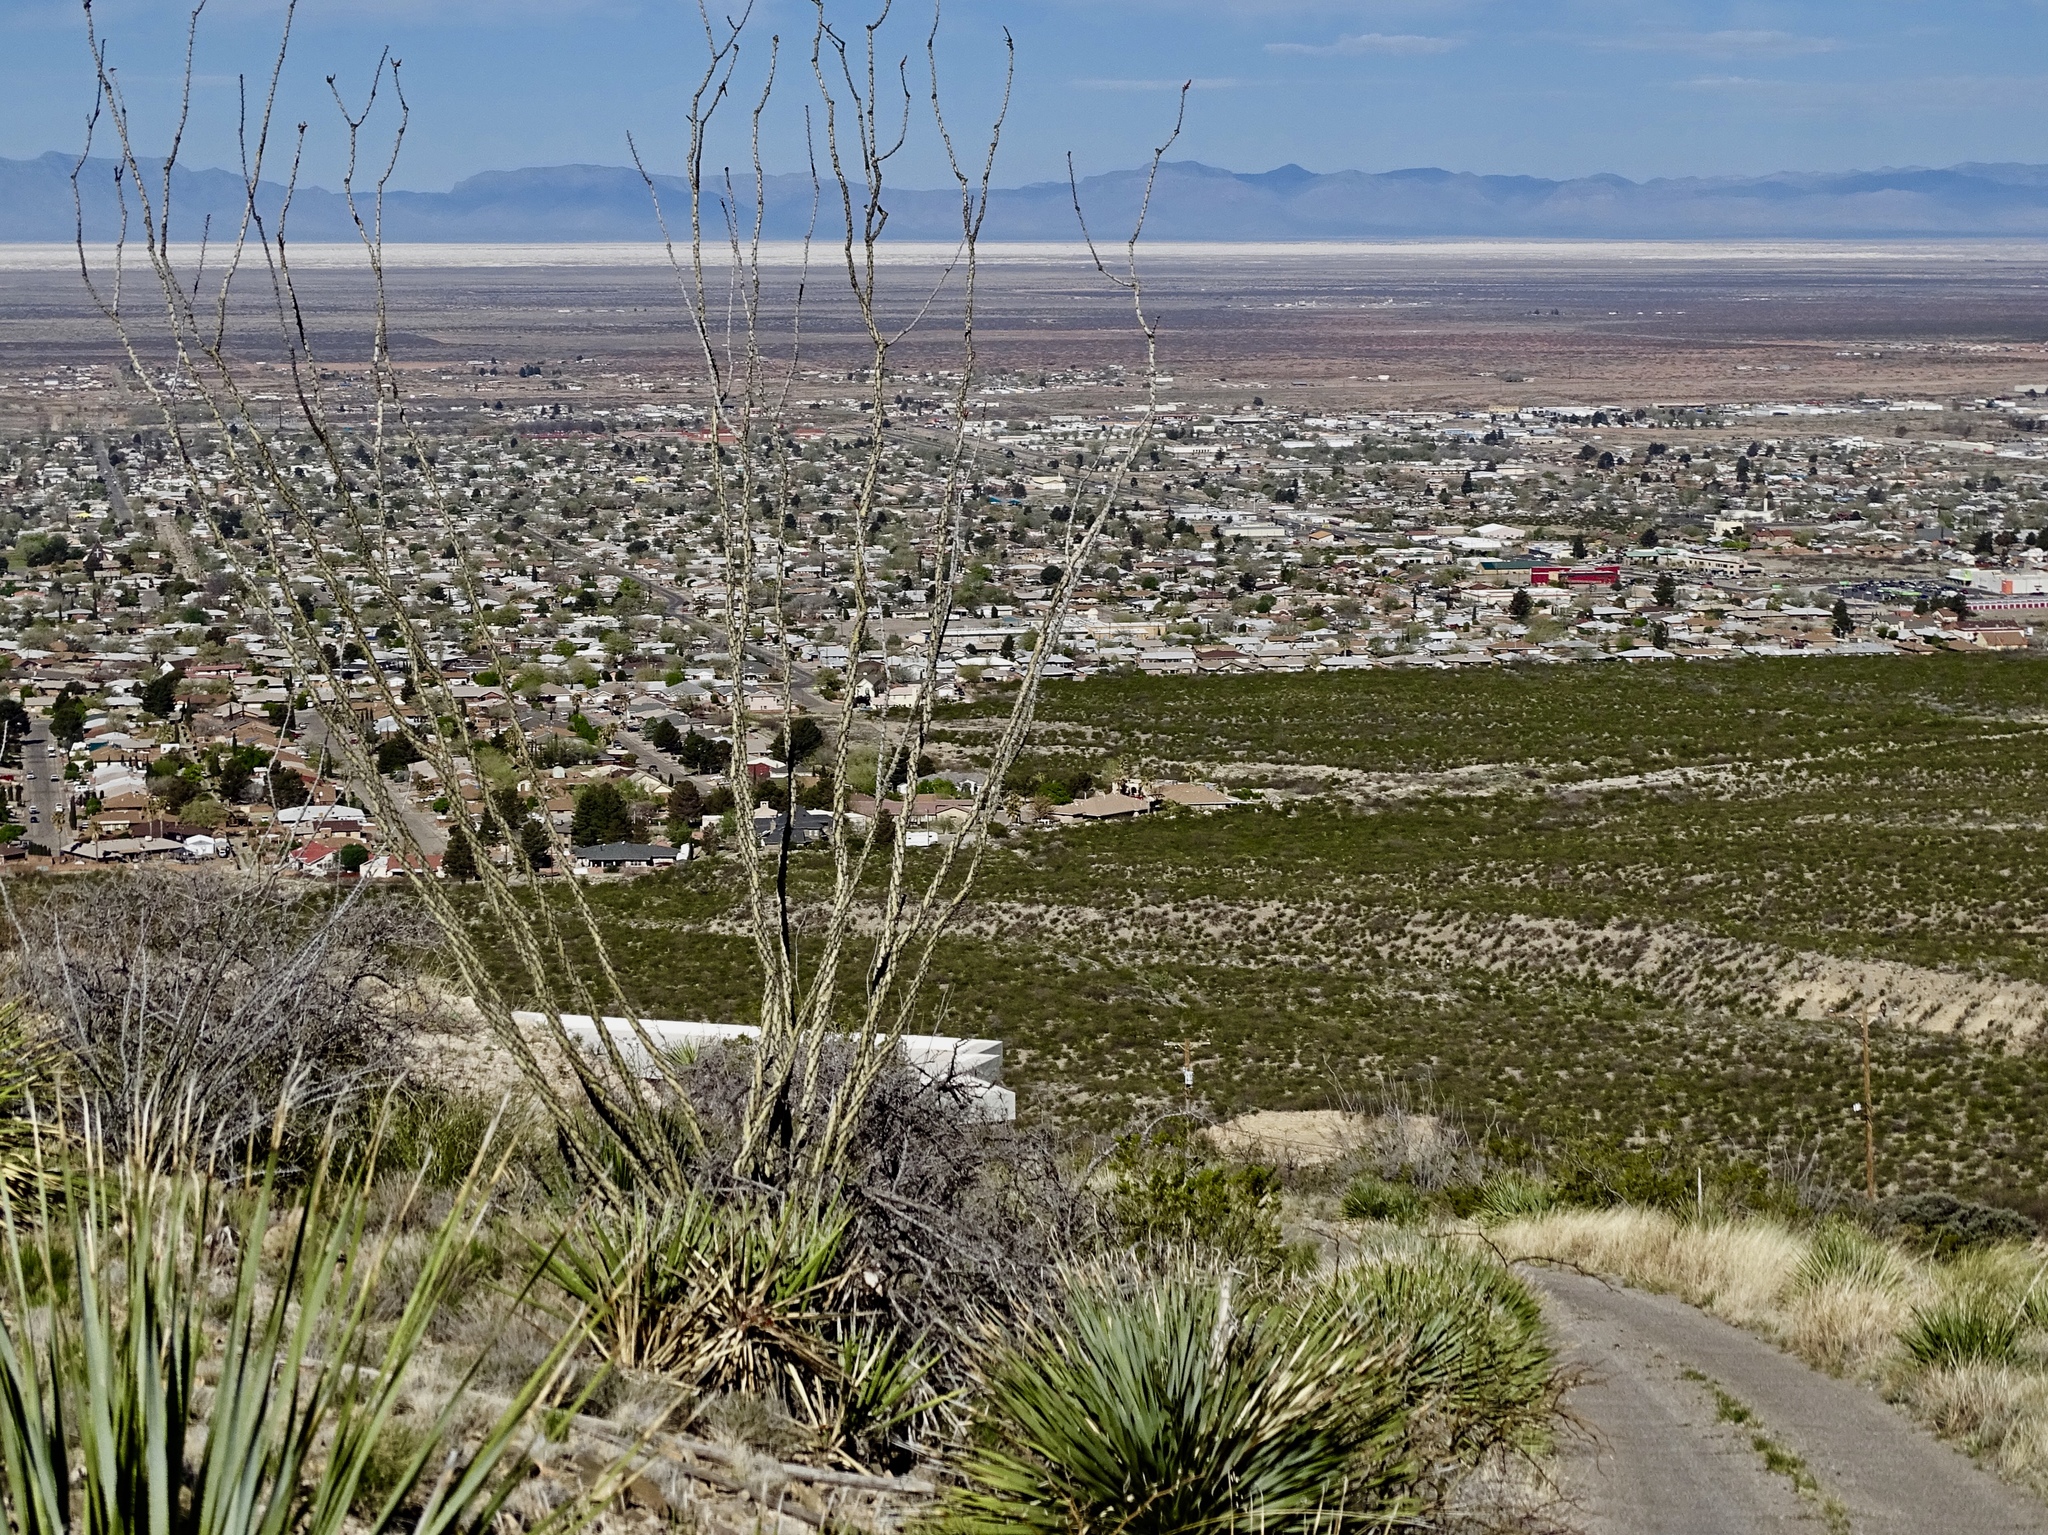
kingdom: Plantae
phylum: Tracheophyta
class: Magnoliopsida
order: Ericales
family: Fouquieriaceae
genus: Fouquieria
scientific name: Fouquieria splendens
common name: Vine-cactus
